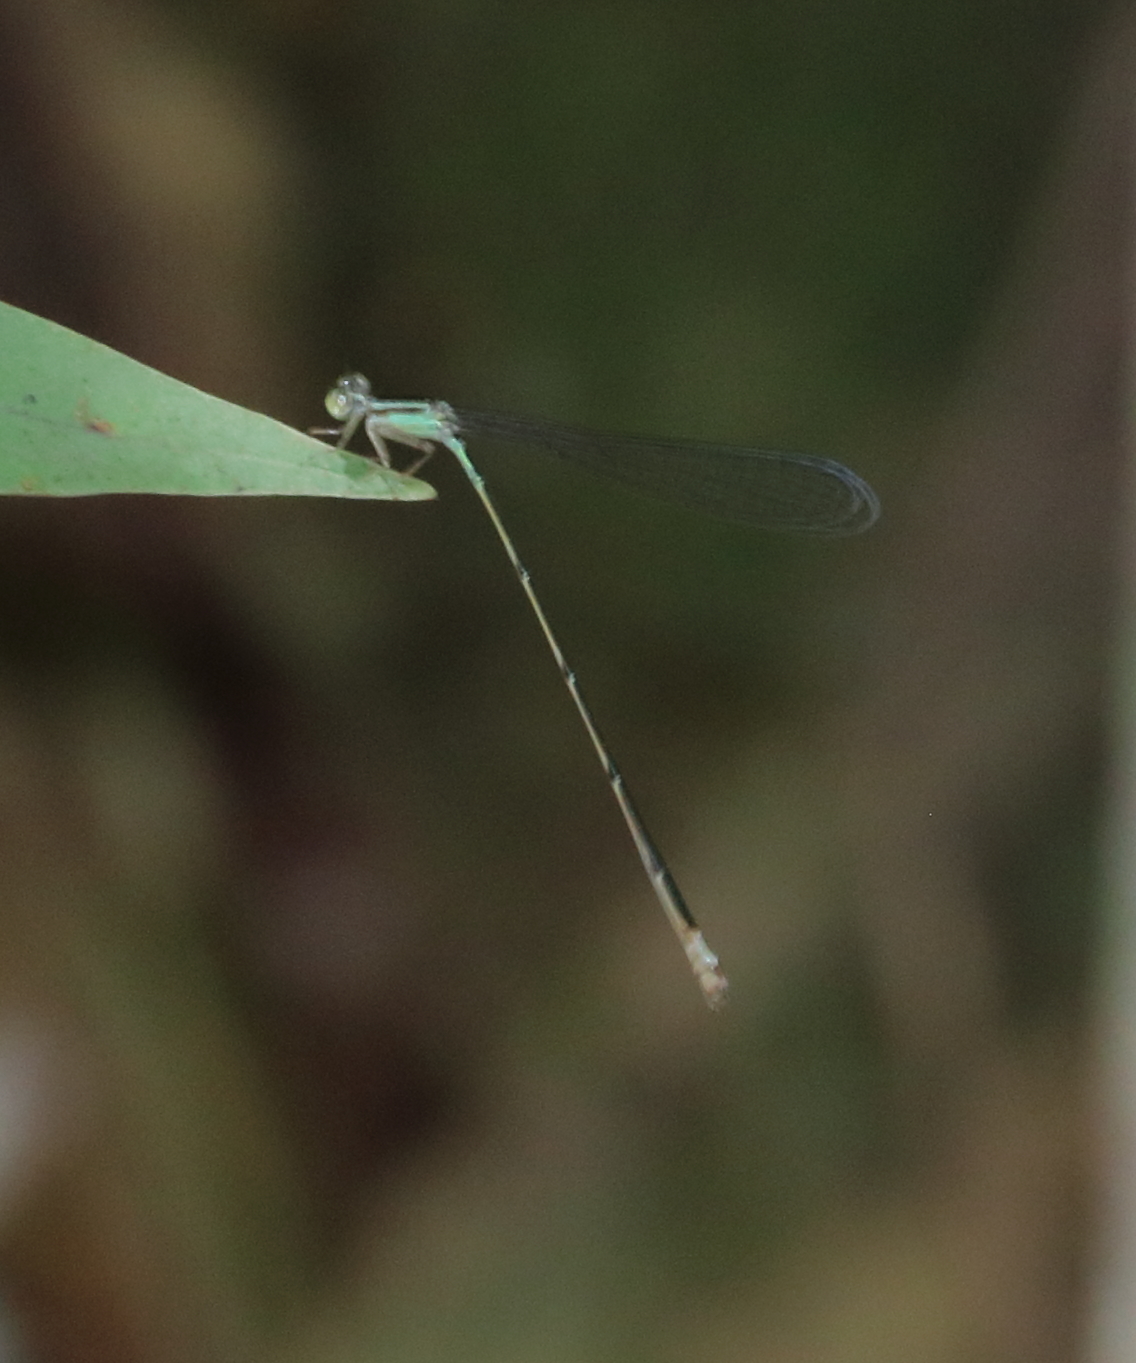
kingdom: Animalia
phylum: Arthropoda
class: Insecta
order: Odonata
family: Coenagrionidae
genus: Leptobasis
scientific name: Leptobasis lucifer
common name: Lucifer swampdamsel
